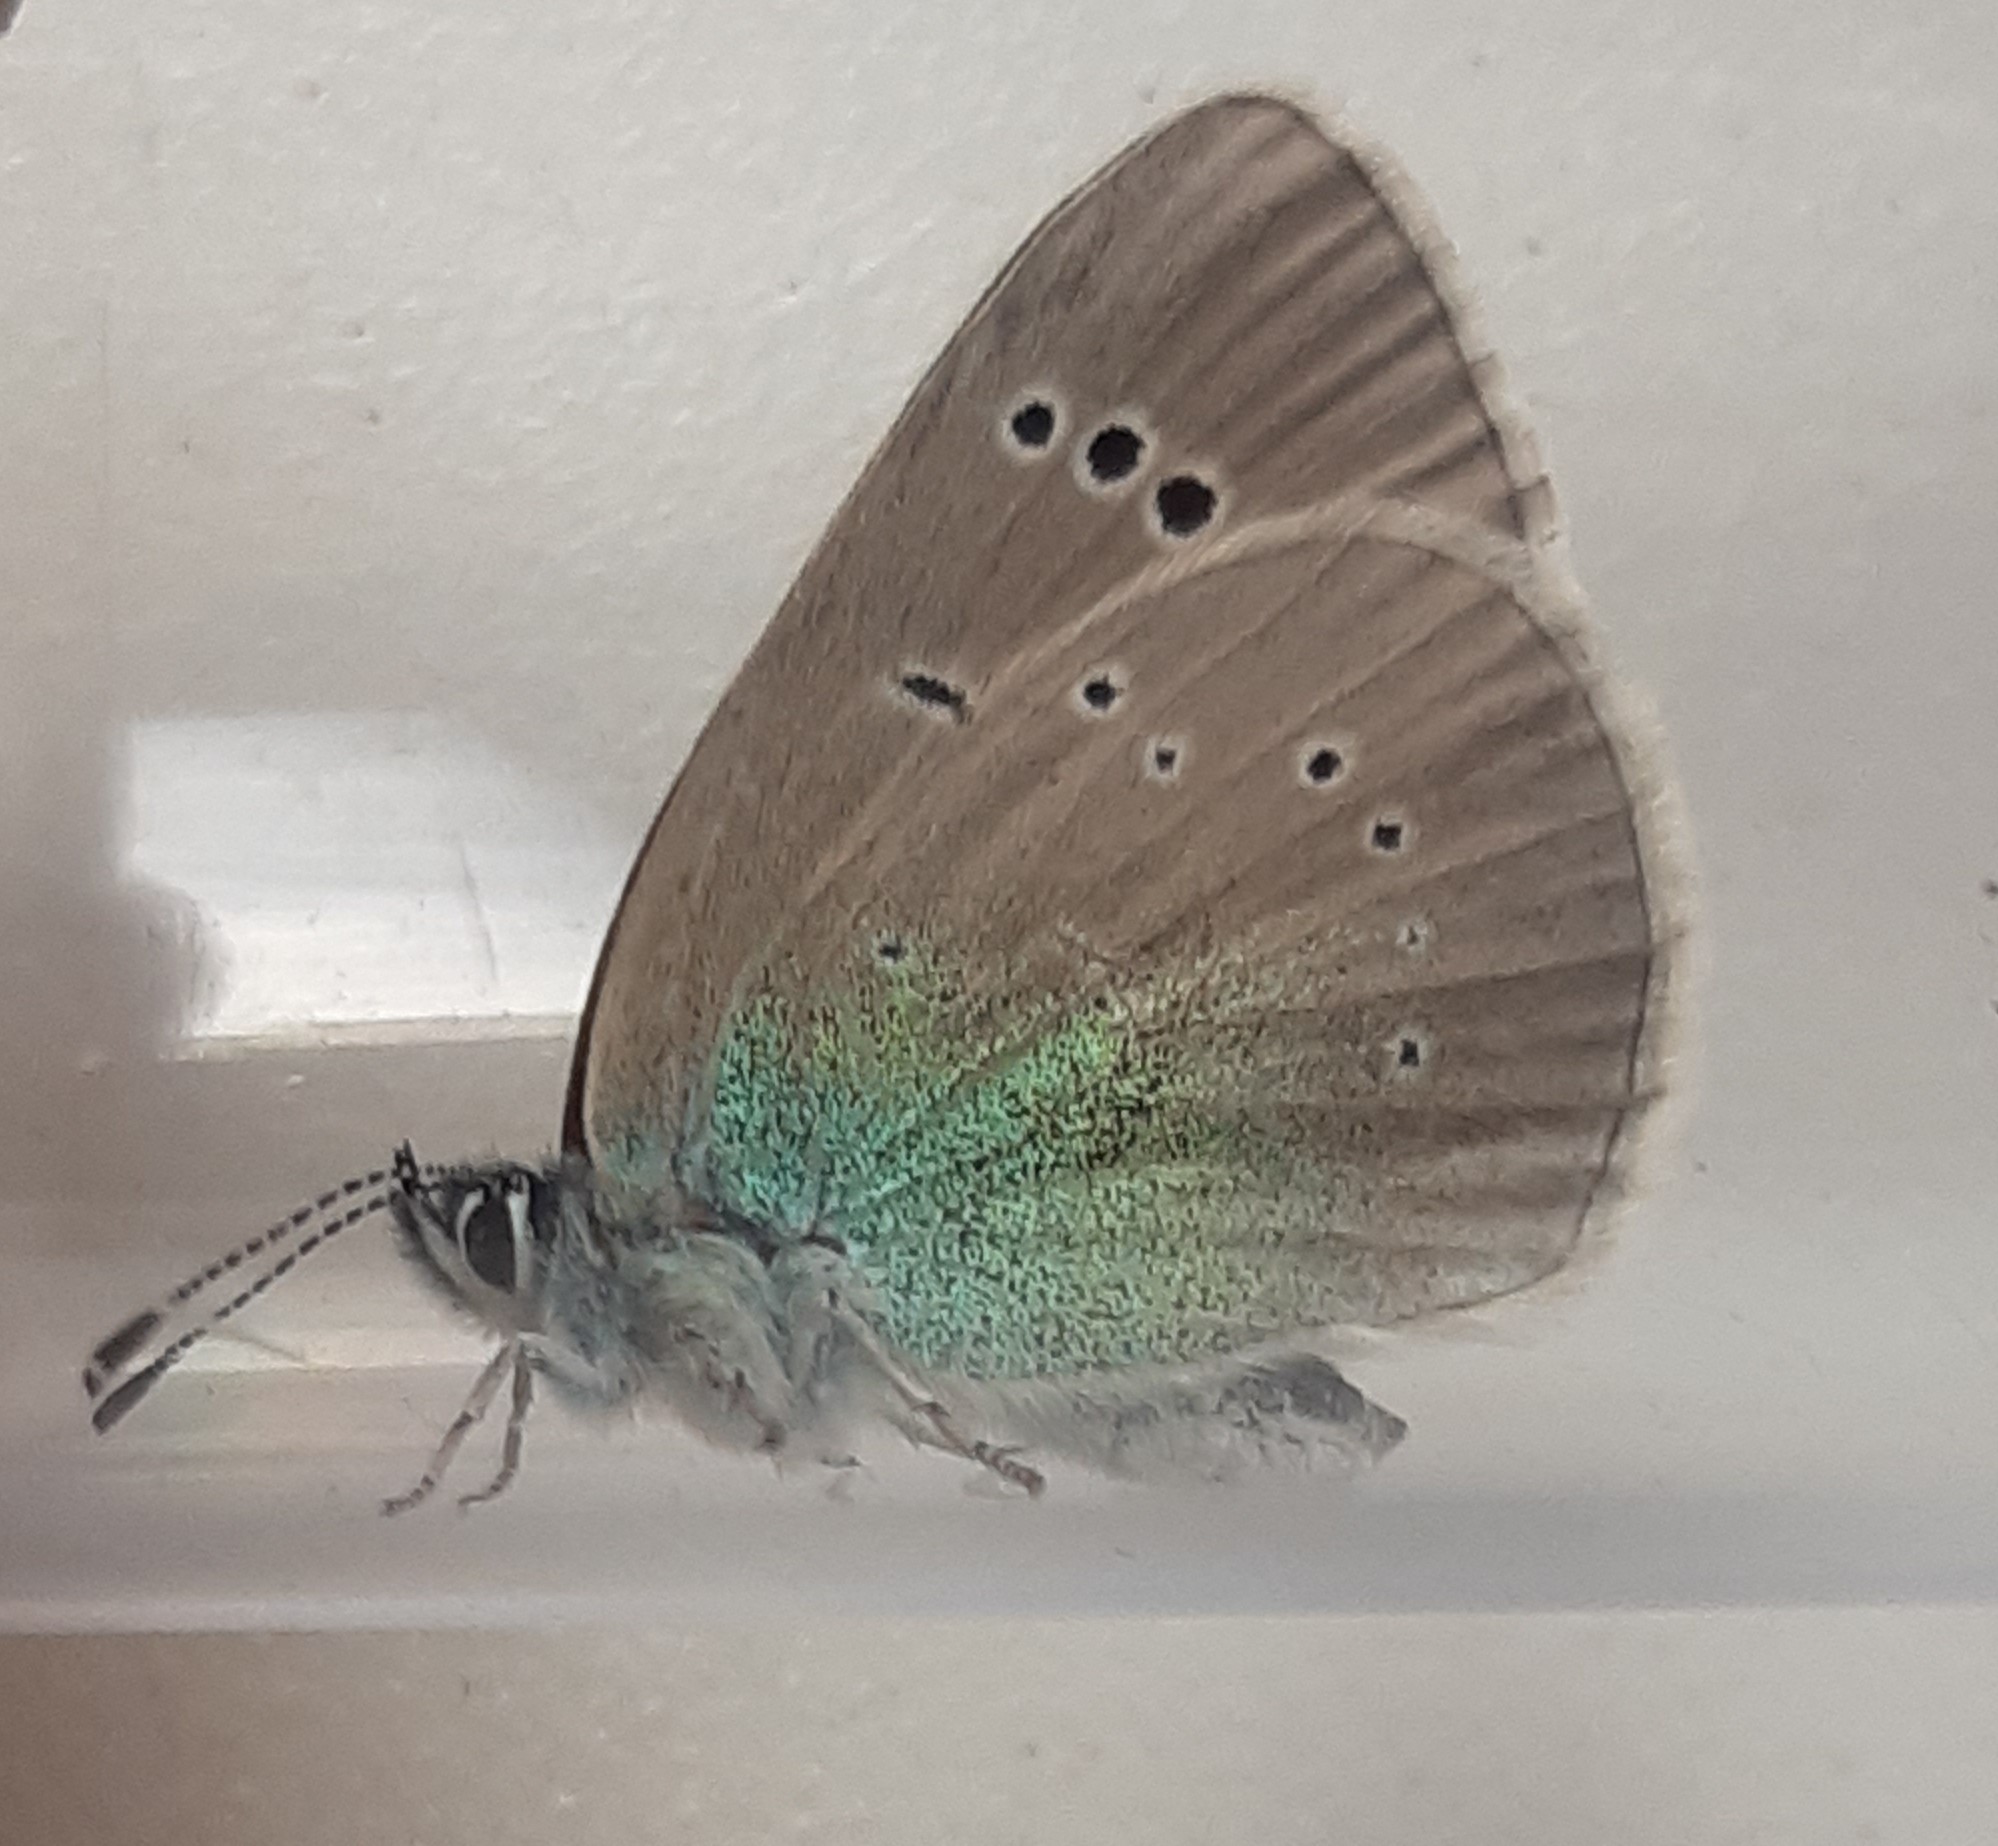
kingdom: Animalia
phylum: Arthropoda
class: Insecta
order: Lepidoptera
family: Lycaenidae
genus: Glaucopsyche
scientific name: Glaucopsyche alexis
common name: Green-underside blue
